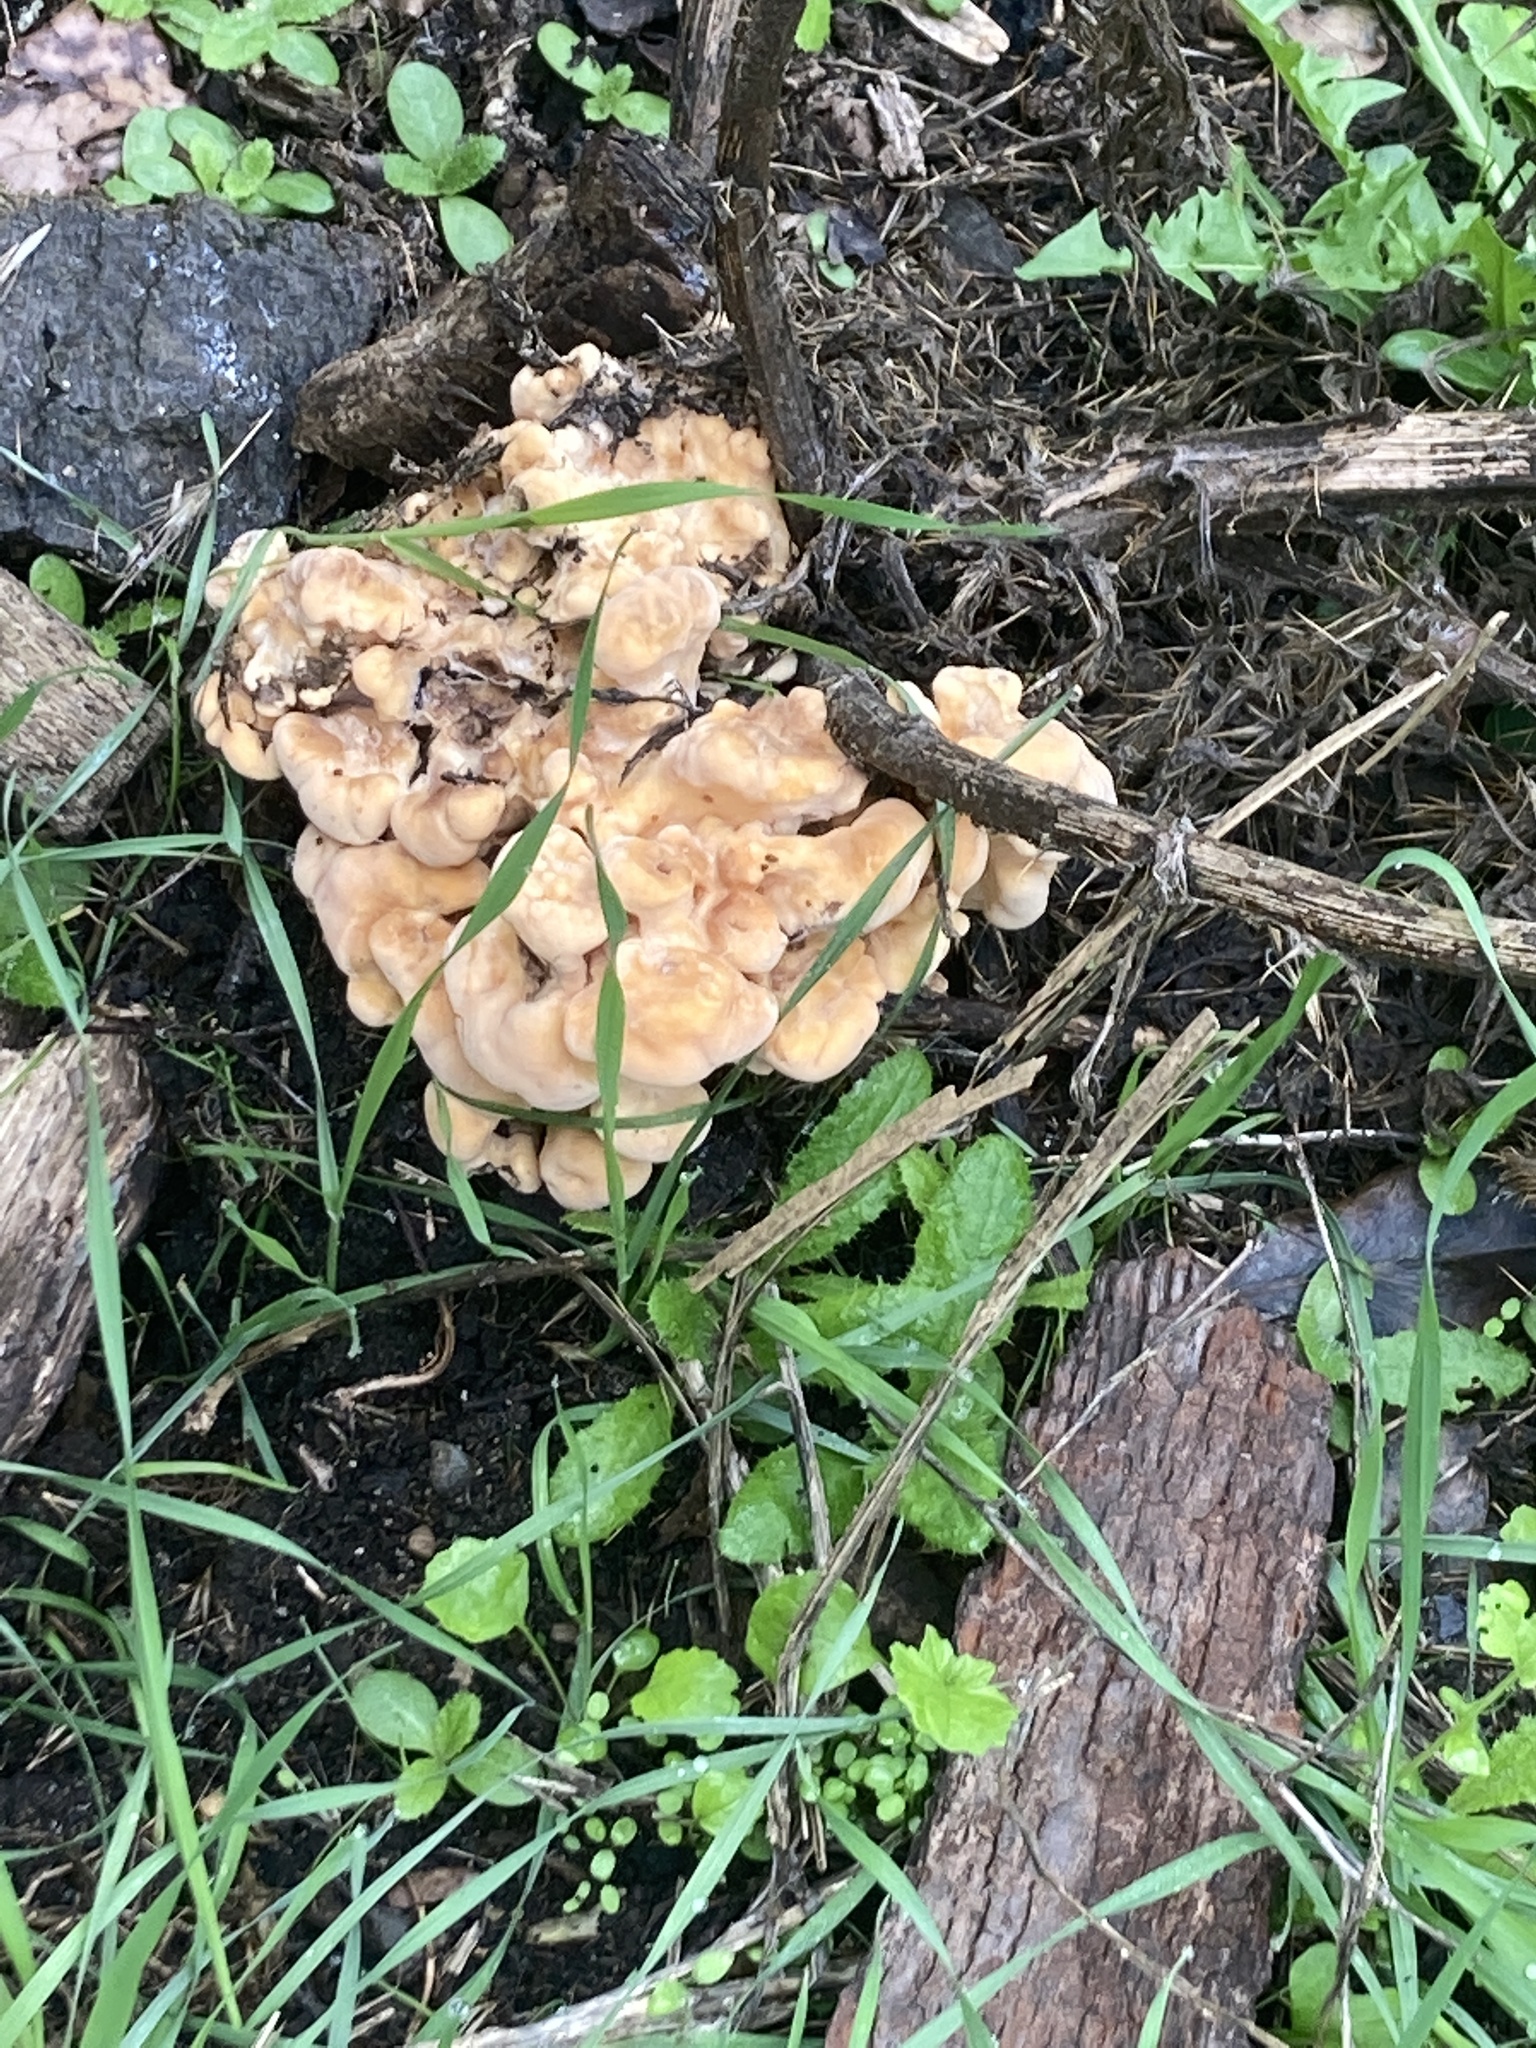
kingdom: Fungi
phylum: Basidiomycota
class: Agaricomycetes
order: Polyporales
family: Laetiporaceae
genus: Laetiporus
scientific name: Laetiporus sulphureus
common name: Chicken of the woods
